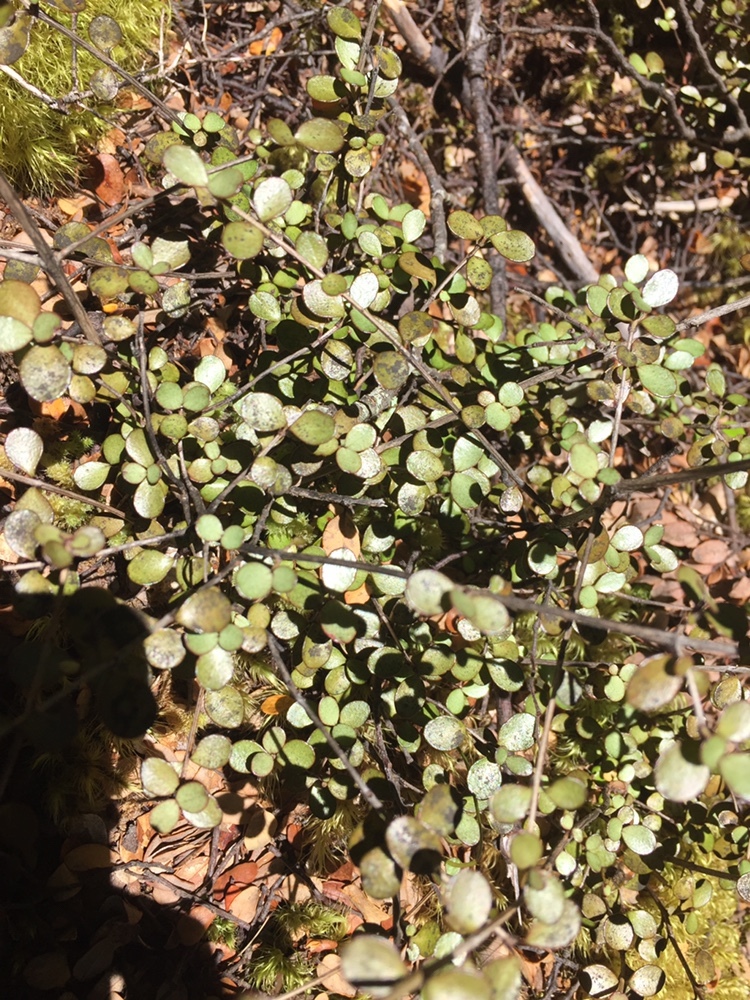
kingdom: Plantae
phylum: Tracheophyta
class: Magnoliopsida
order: Myrtales
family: Myrtaceae
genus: Neomyrtus
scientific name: Neomyrtus pedunculata
